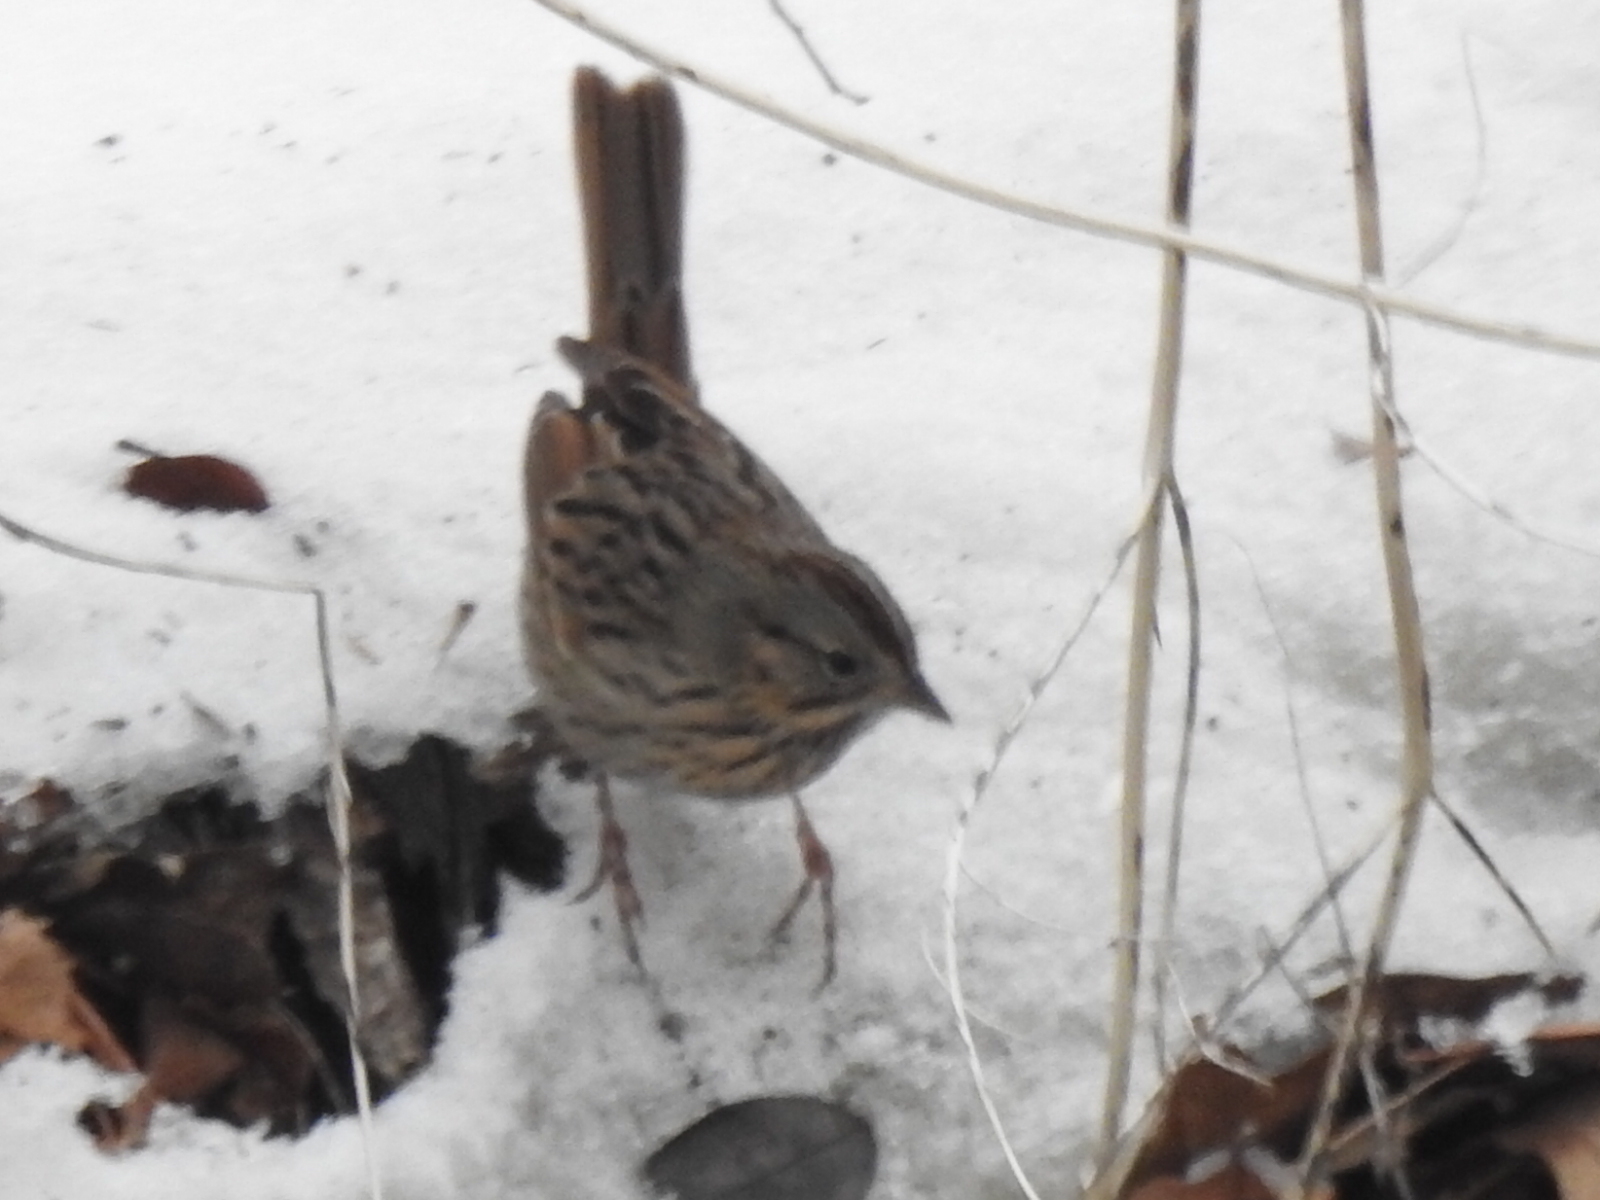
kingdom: Animalia
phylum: Chordata
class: Aves
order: Passeriformes
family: Passerellidae
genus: Melospiza
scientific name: Melospiza lincolnii
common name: Lincoln's sparrow
